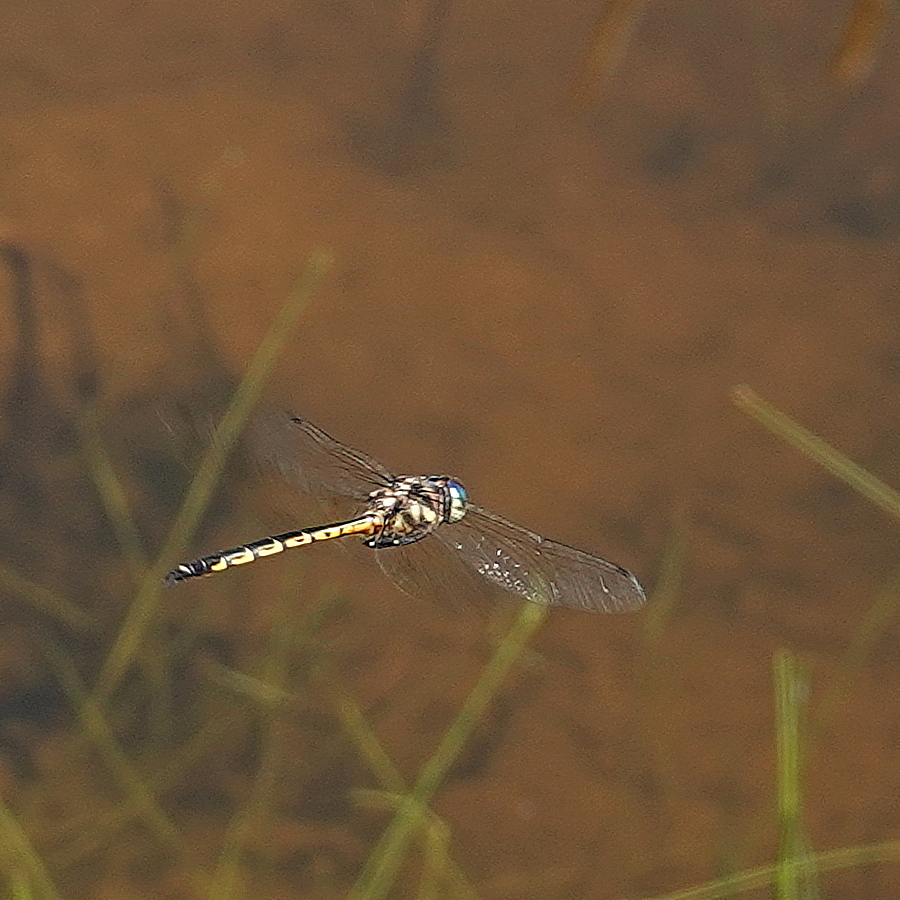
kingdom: Animalia
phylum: Arthropoda
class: Insecta
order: Odonata
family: Corduliidae
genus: Hemicordulia
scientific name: Hemicordulia australiae
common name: Sentry dragonfly
